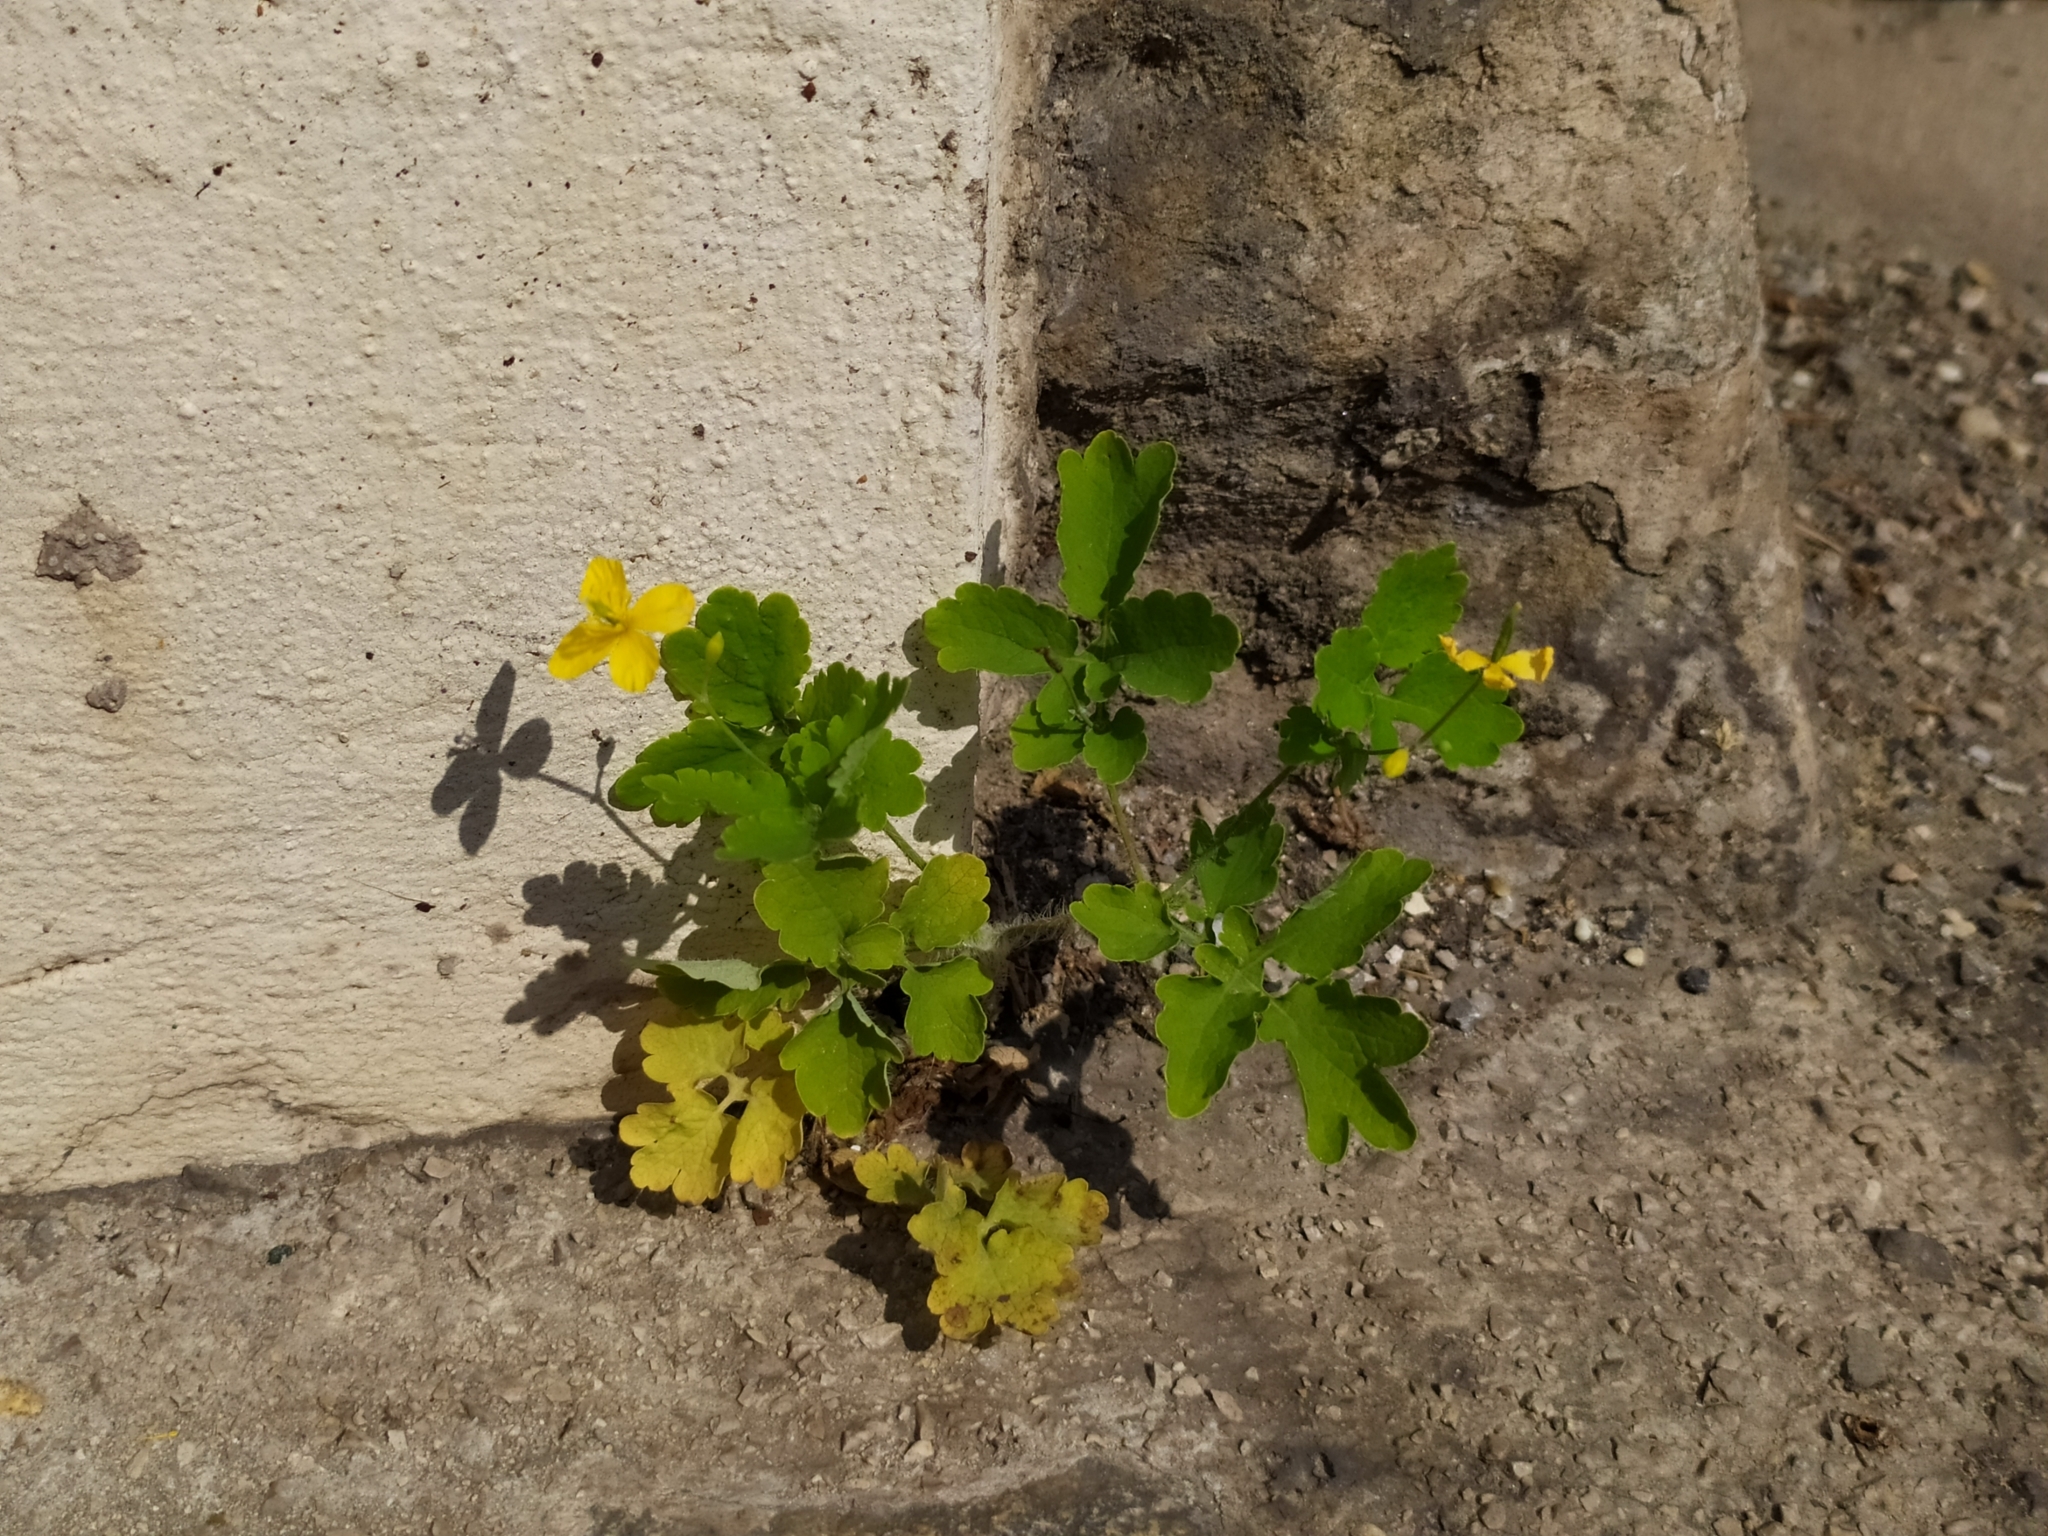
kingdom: Plantae
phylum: Tracheophyta
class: Magnoliopsida
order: Ranunculales
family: Papaveraceae
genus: Chelidonium
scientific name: Chelidonium majus
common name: Greater celandine
